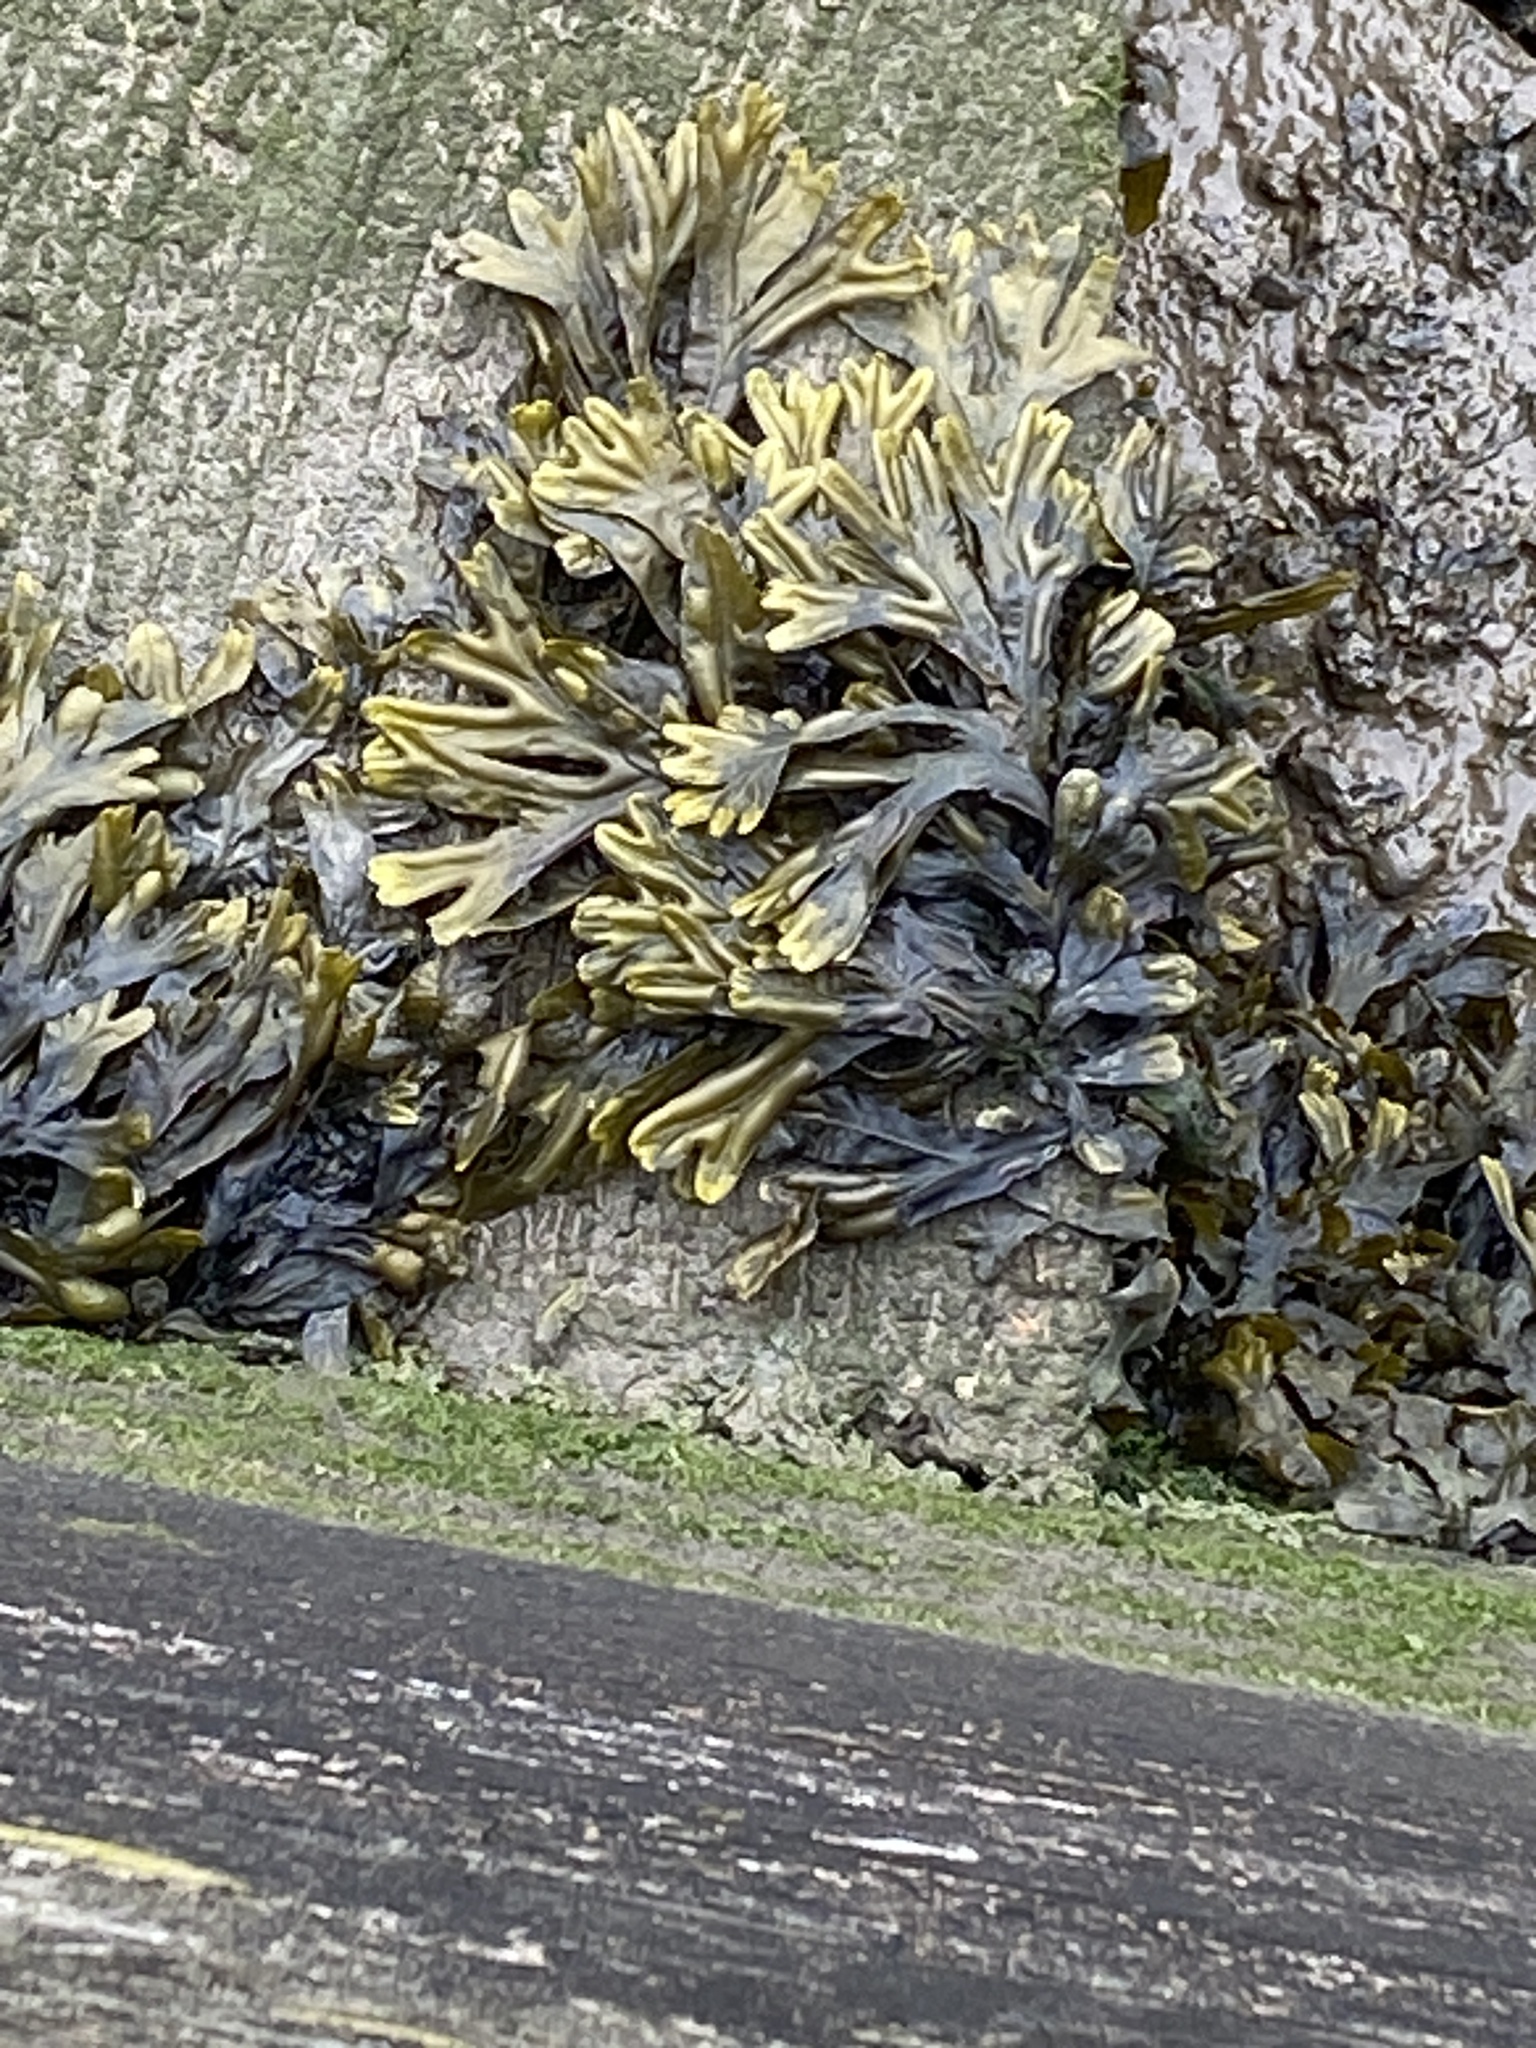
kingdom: Chromista
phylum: Ochrophyta
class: Phaeophyceae
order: Fucales
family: Fucaceae
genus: Fucus
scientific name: Fucus ceranoides
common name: Horned wrack
